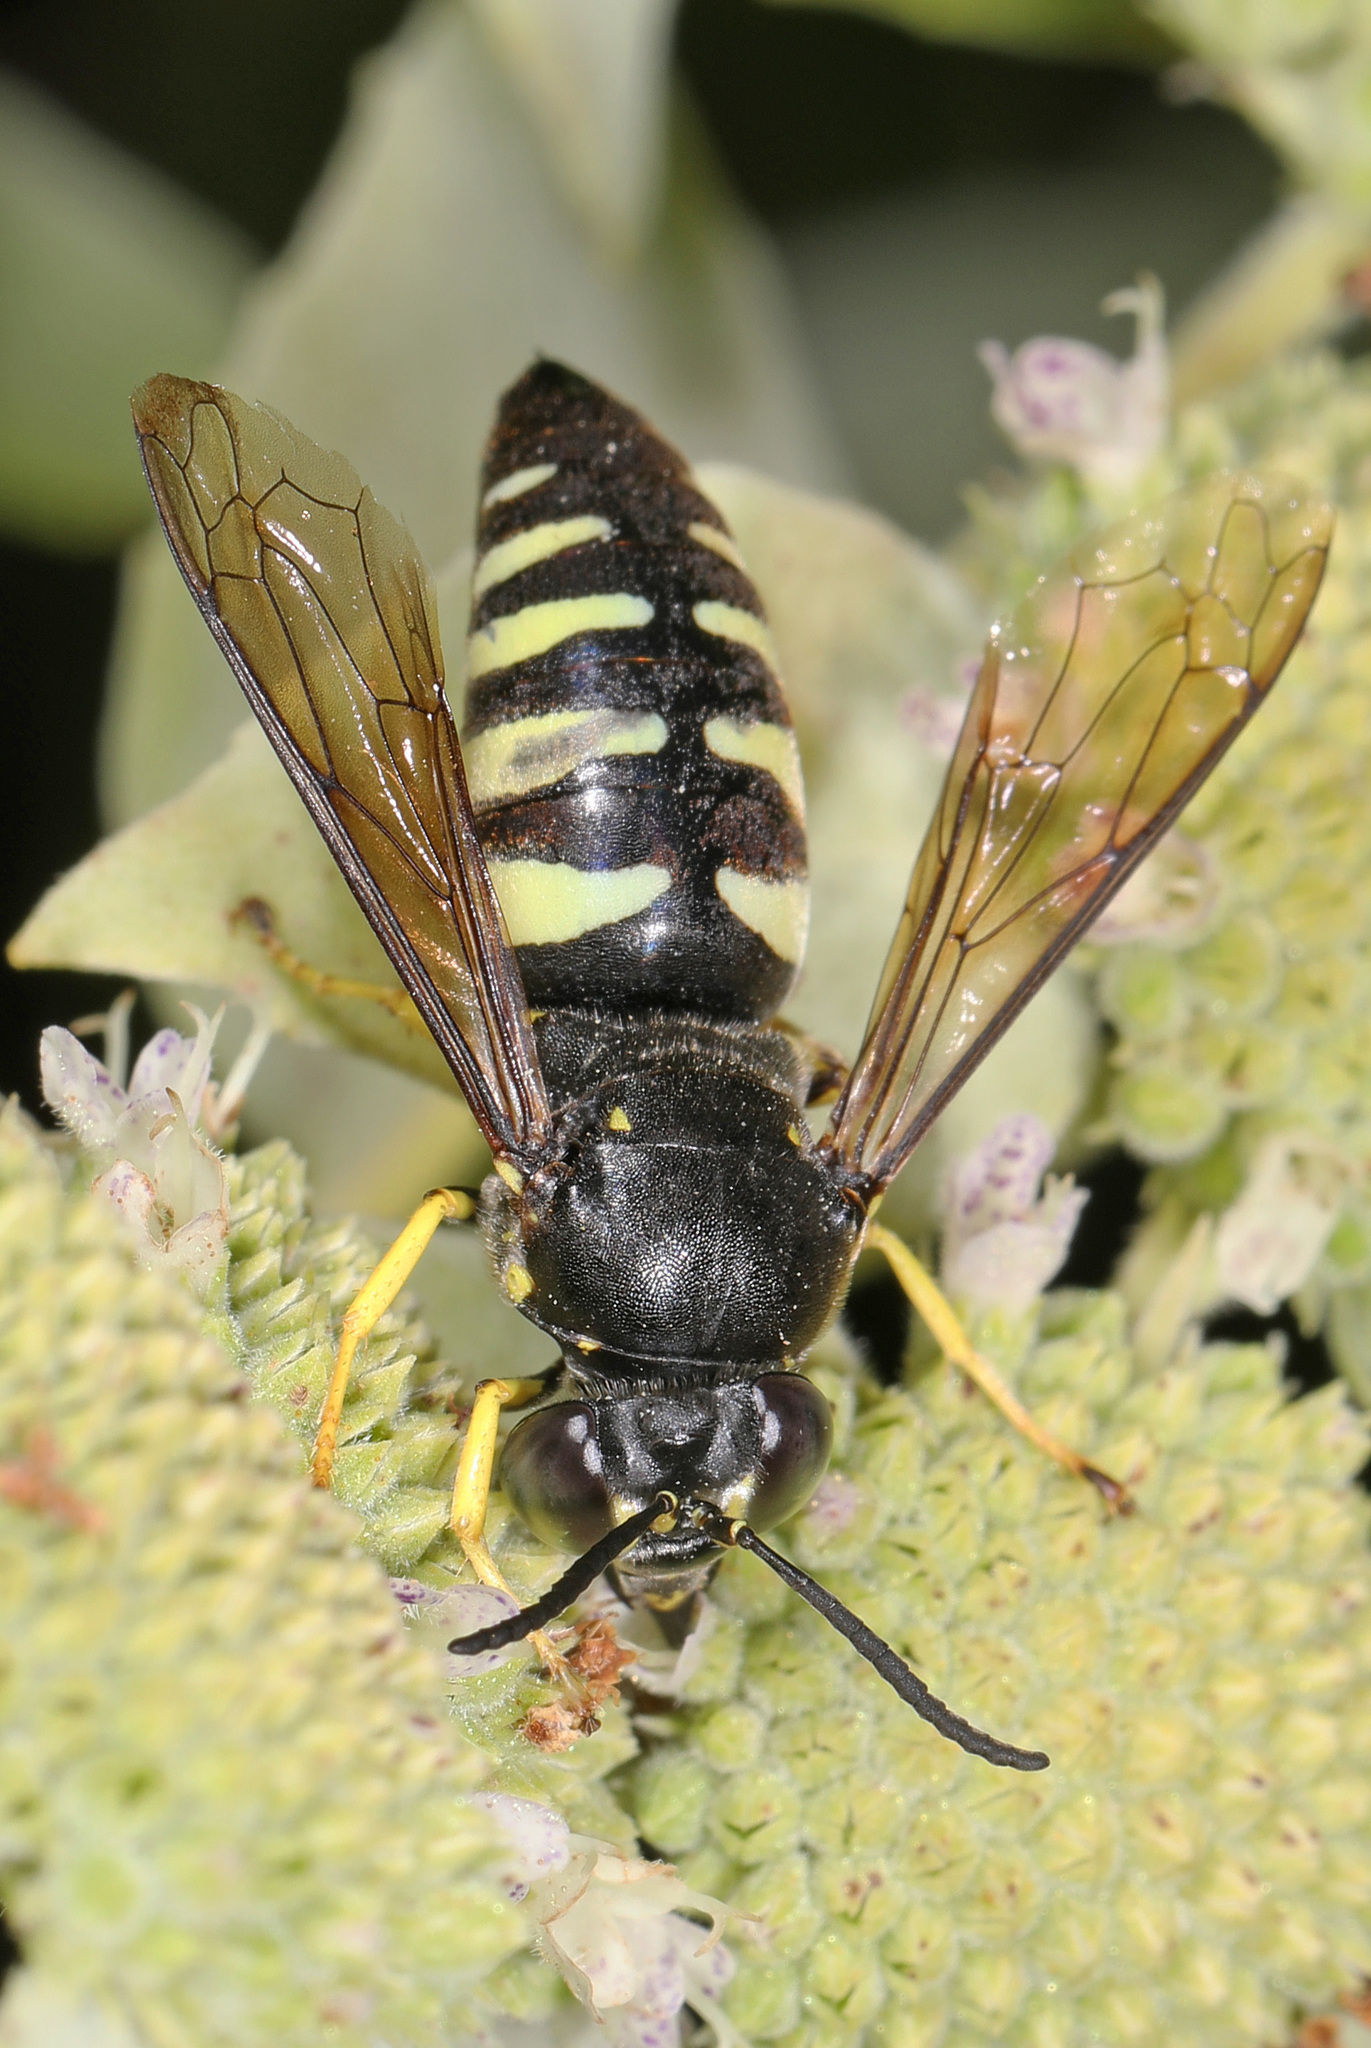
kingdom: Animalia
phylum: Arthropoda
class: Insecta
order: Hymenoptera
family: Crabronidae
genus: Bicyrtes
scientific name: Bicyrtes quadrifasciatus
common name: Four-banded stink bug hunter wasp
